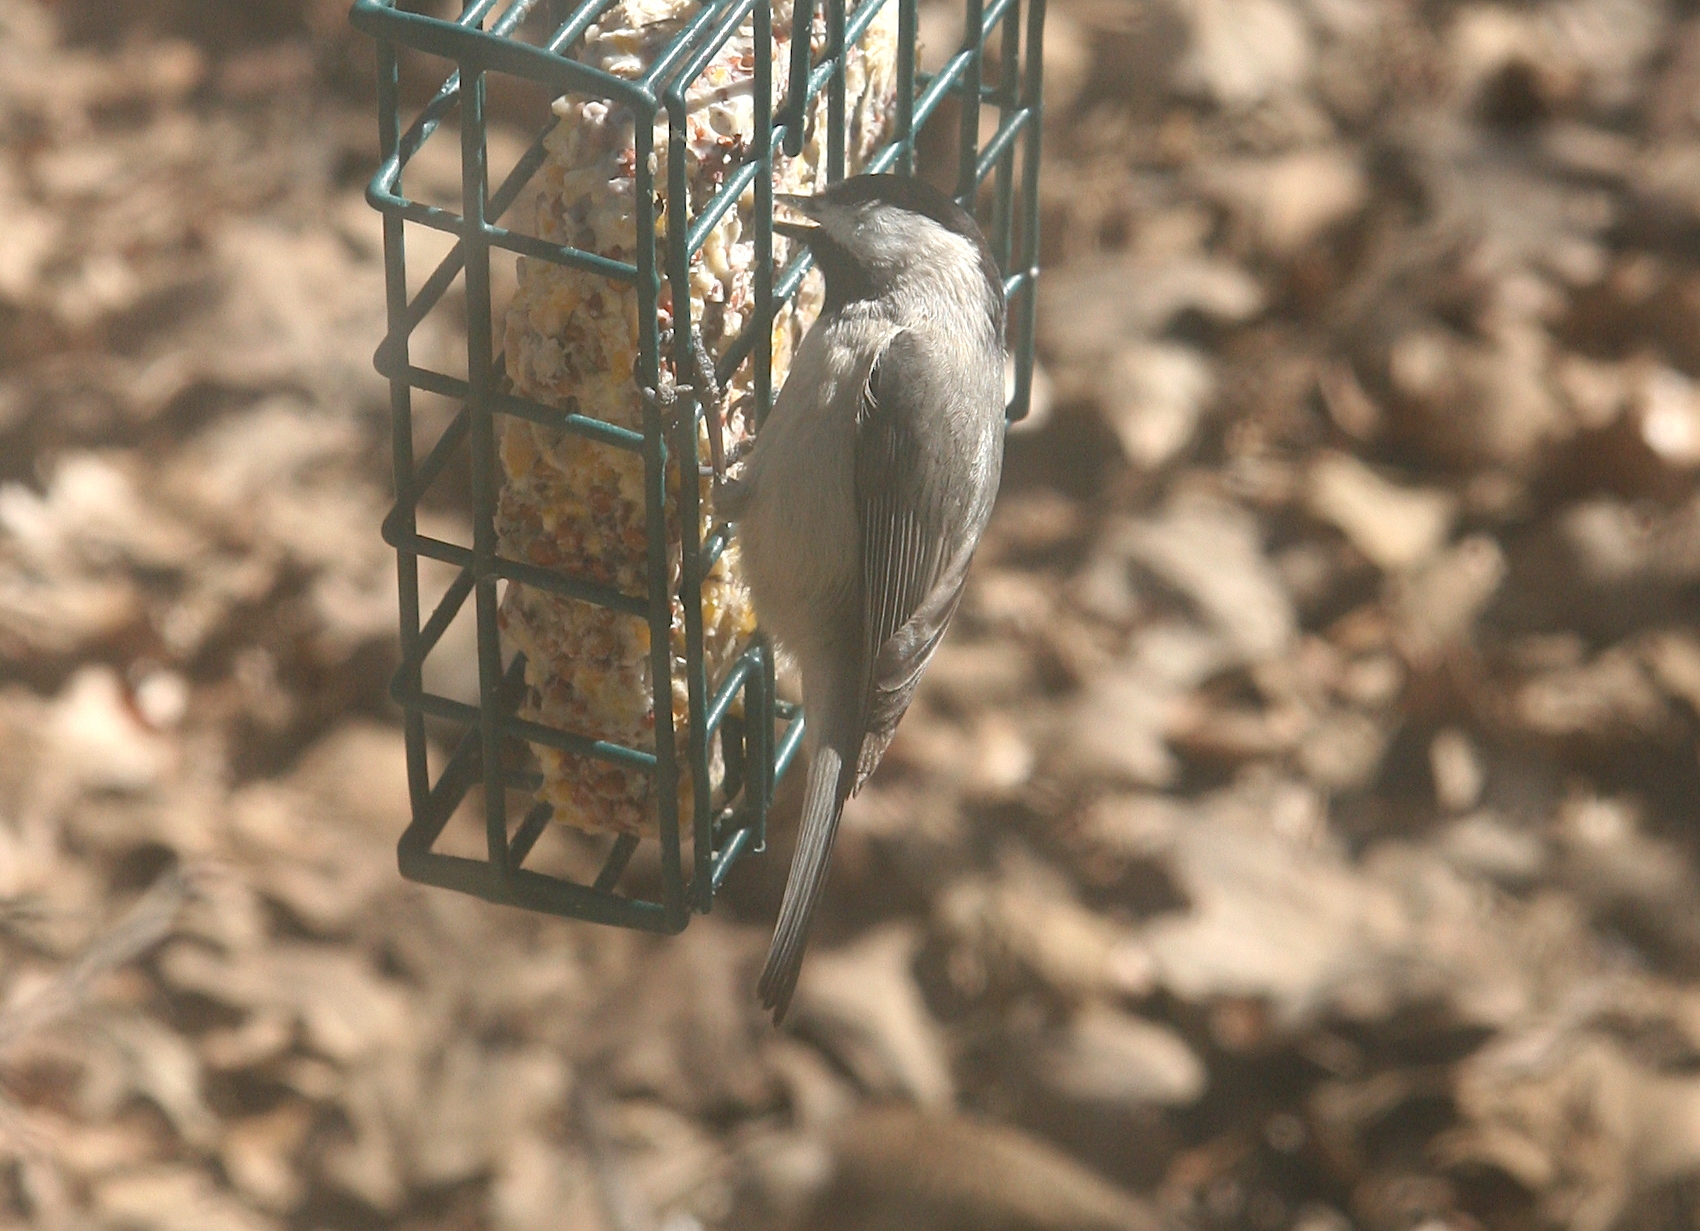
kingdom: Animalia
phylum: Chordata
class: Aves
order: Passeriformes
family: Paridae
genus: Poecile
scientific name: Poecile carolinensis
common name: Carolina chickadee
